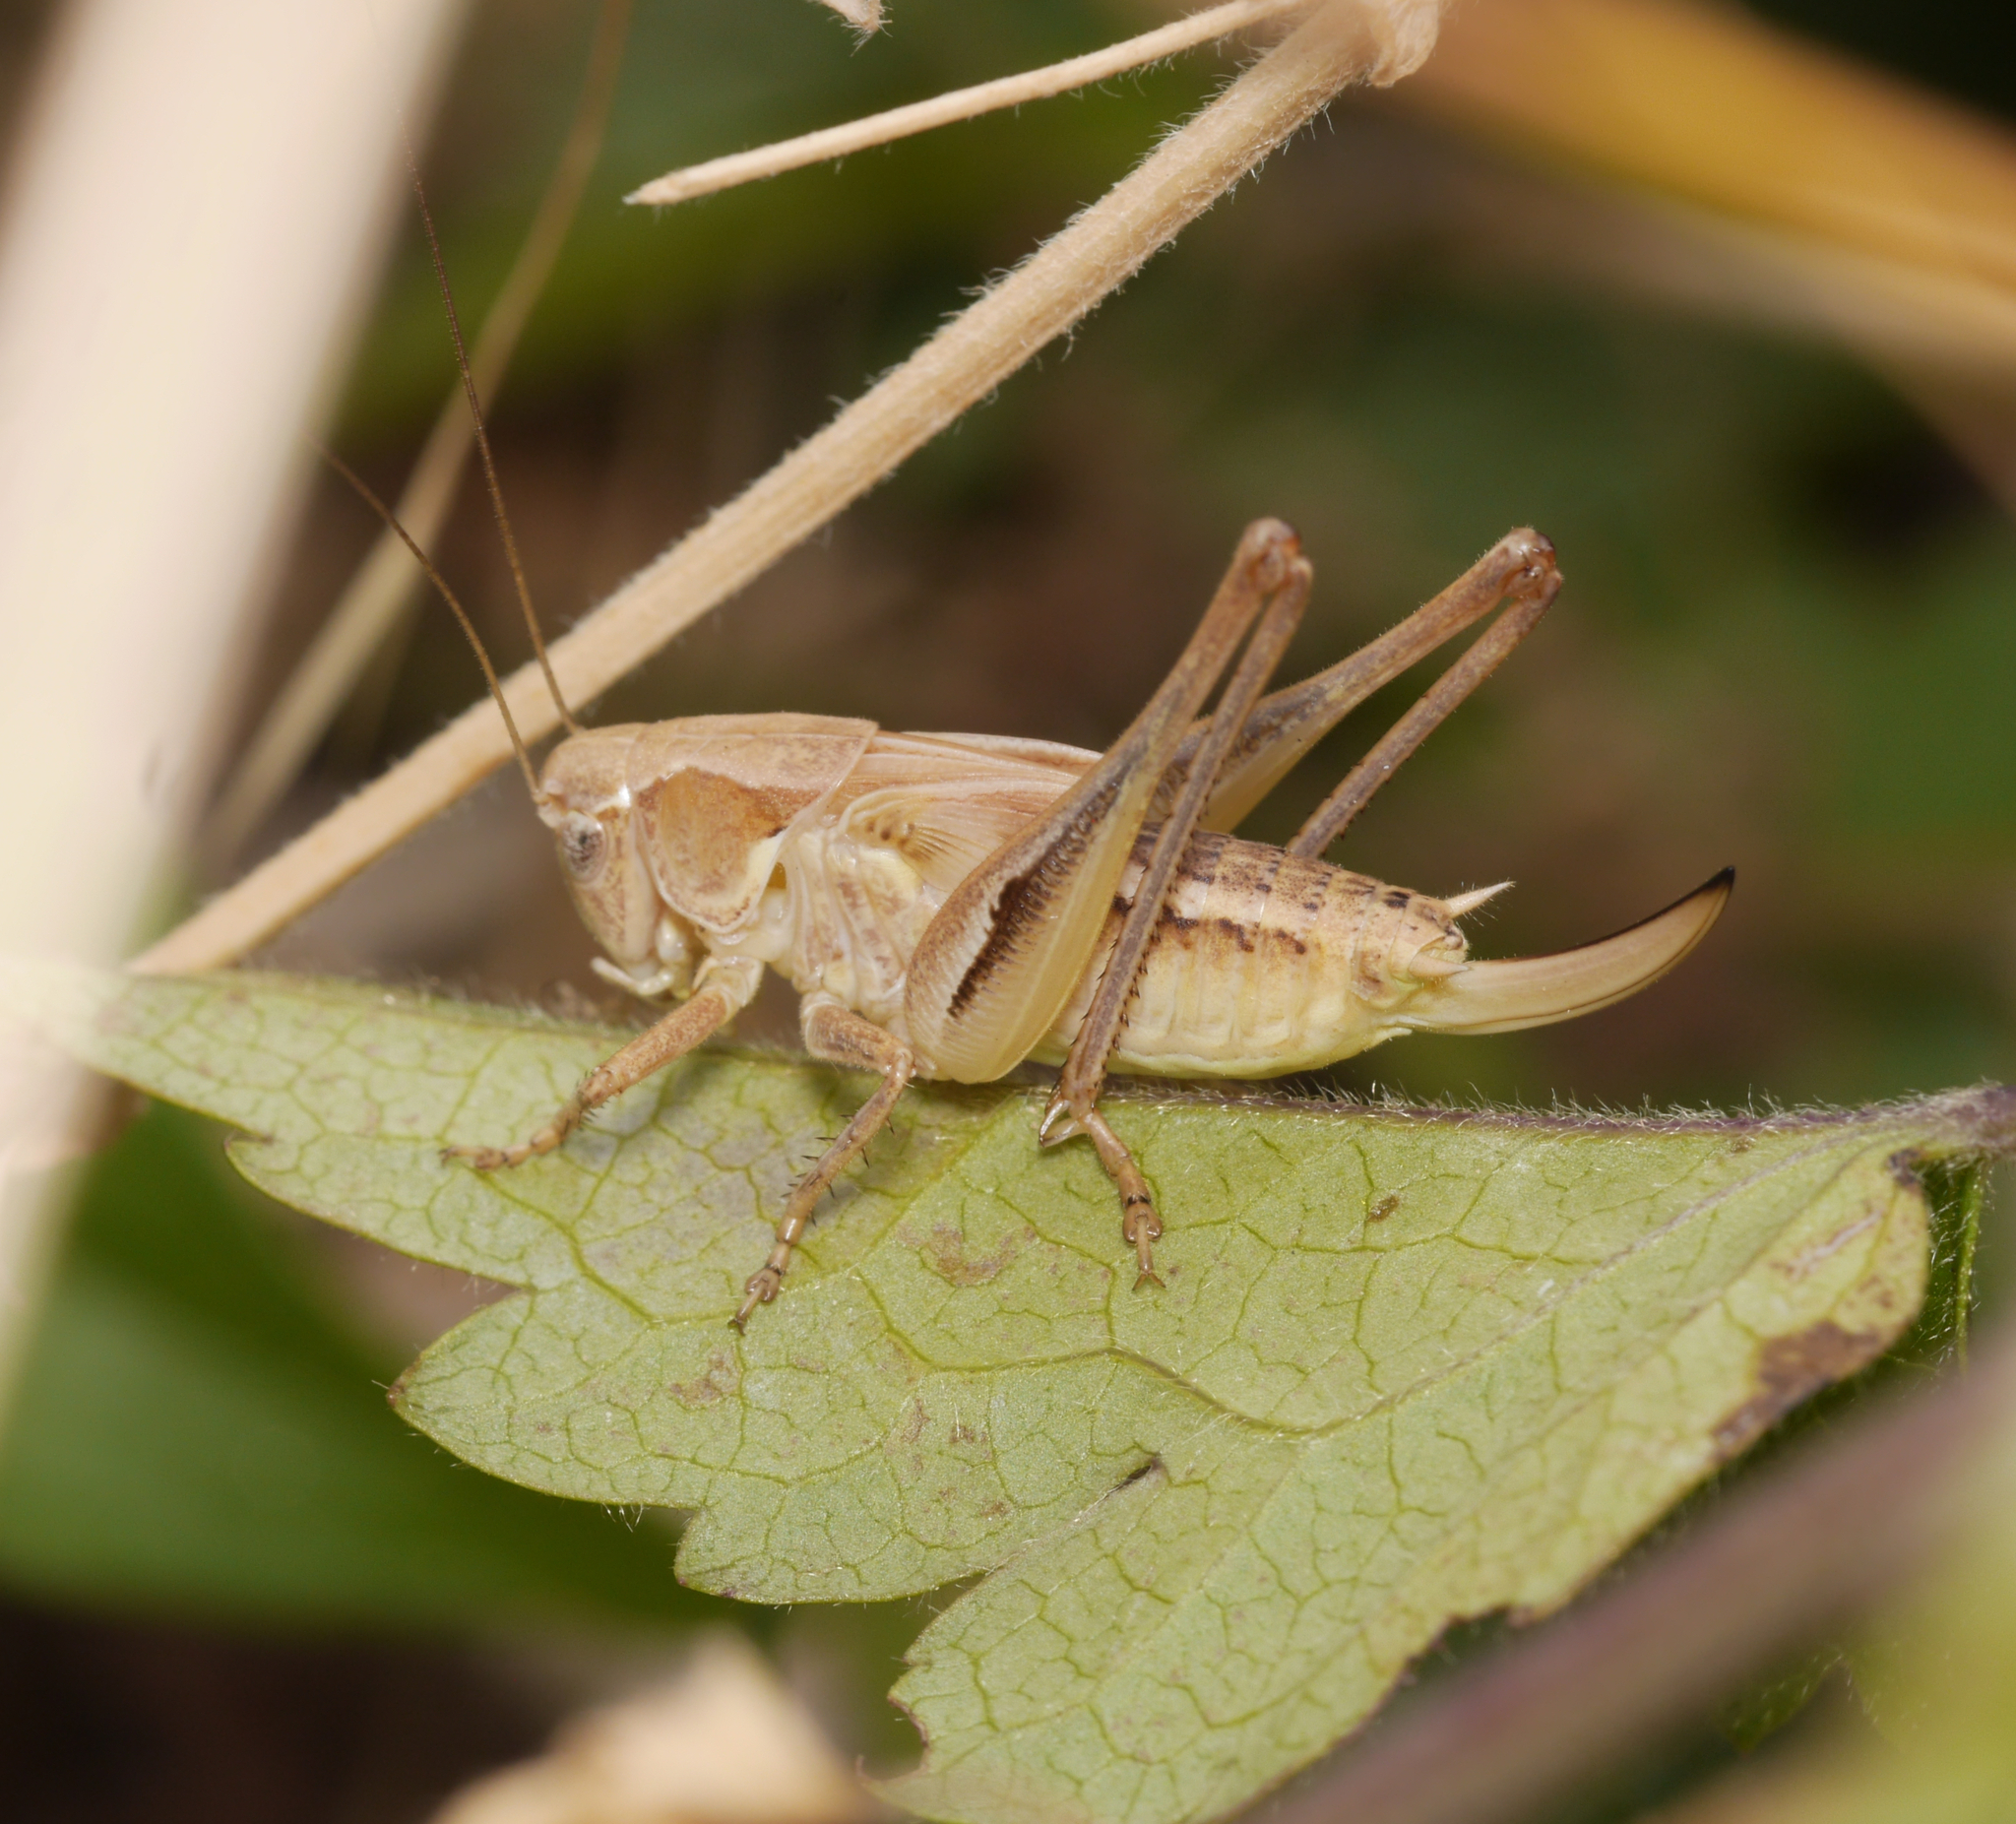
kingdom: Animalia
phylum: Arthropoda
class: Insecta
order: Orthoptera
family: Tettigoniidae
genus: Platycleis
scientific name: Platycleis albopunctata
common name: Grey bush-cricket
